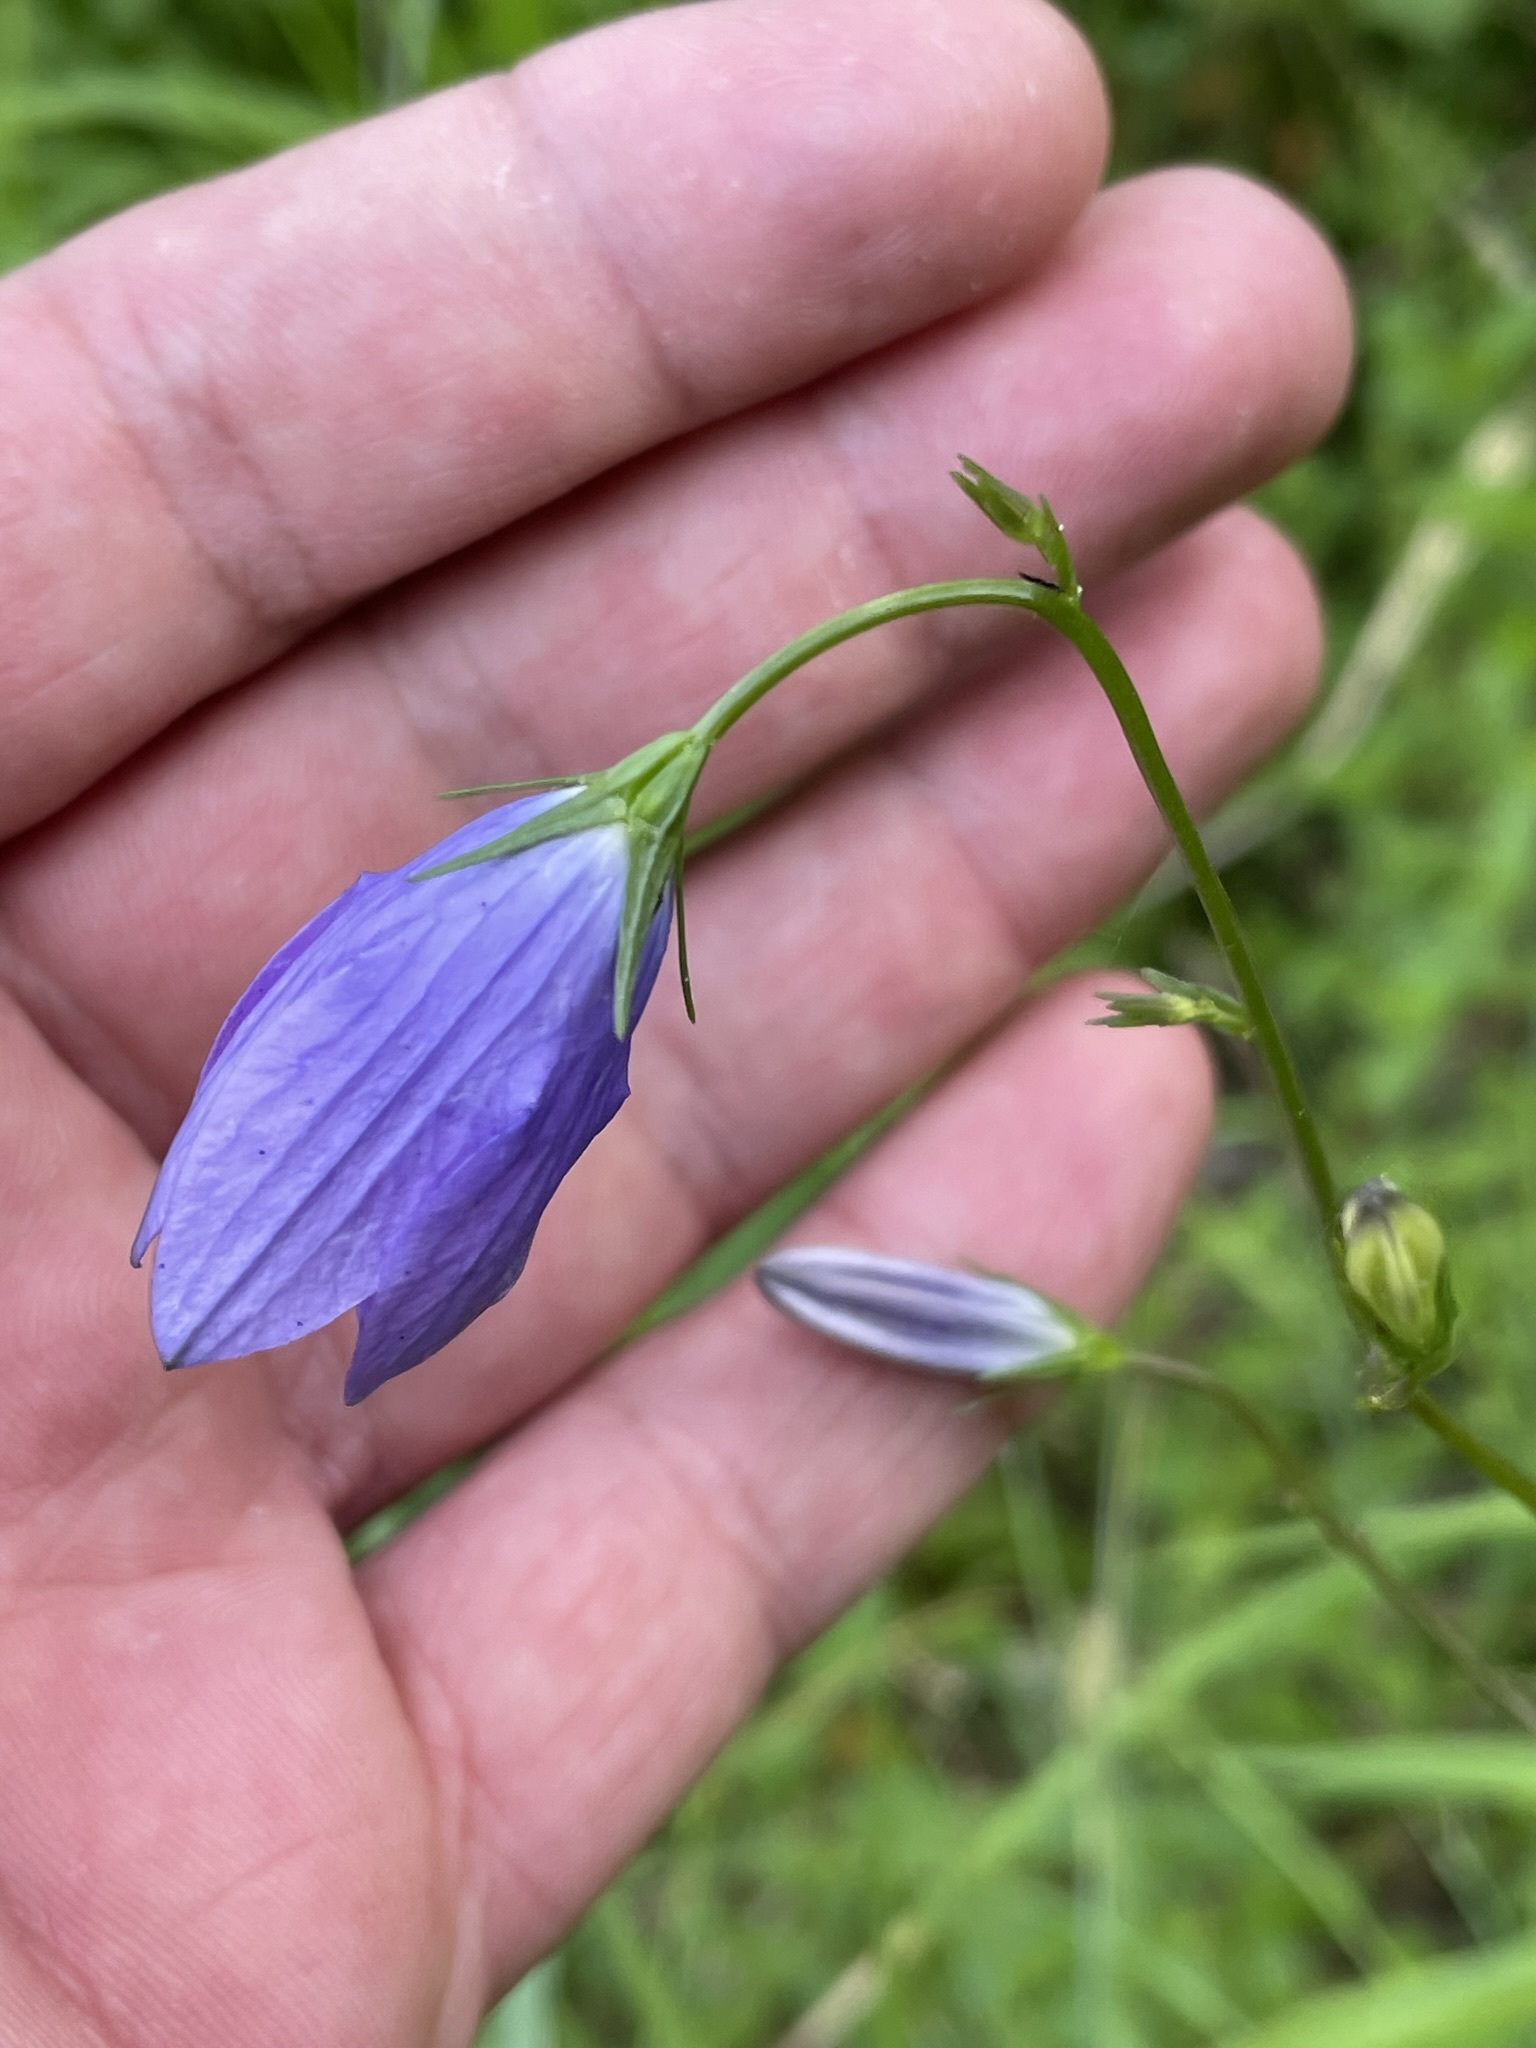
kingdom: Plantae
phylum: Tracheophyta
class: Magnoliopsida
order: Asterales
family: Campanulaceae
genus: Campanula
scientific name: Campanula patula
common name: Spreading bellflower
